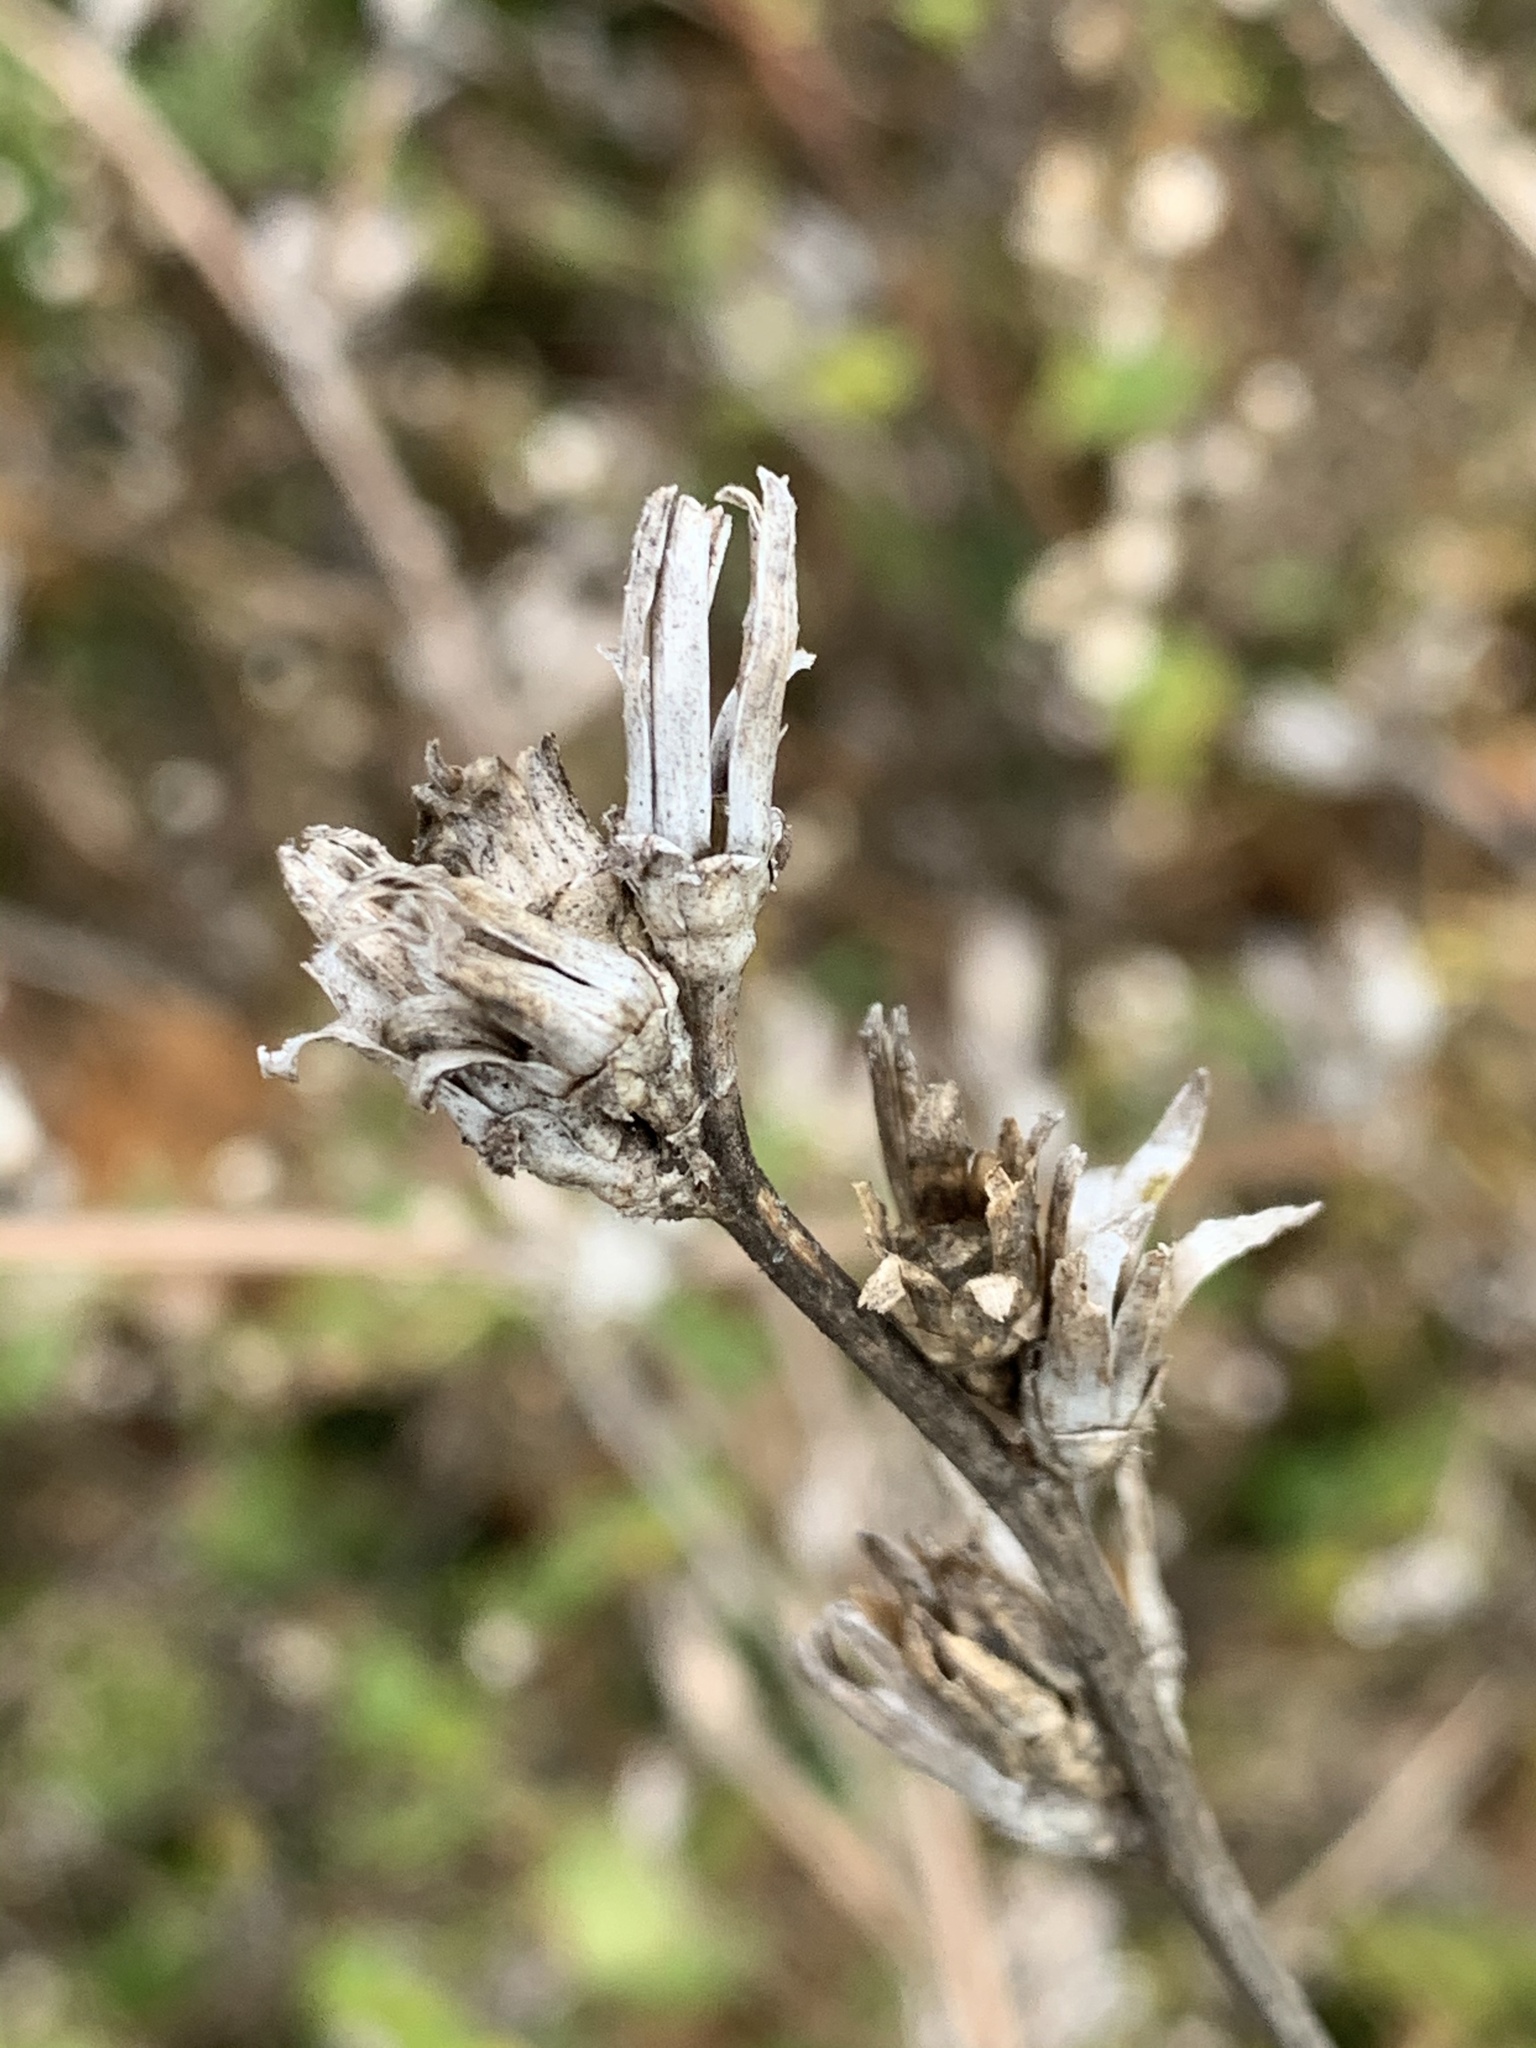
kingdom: Plantae
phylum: Tracheophyta
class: Magnoliopsida
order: Asterales
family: Asteraceae
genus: Cichorium
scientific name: Cichorium intybus
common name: Chicory
